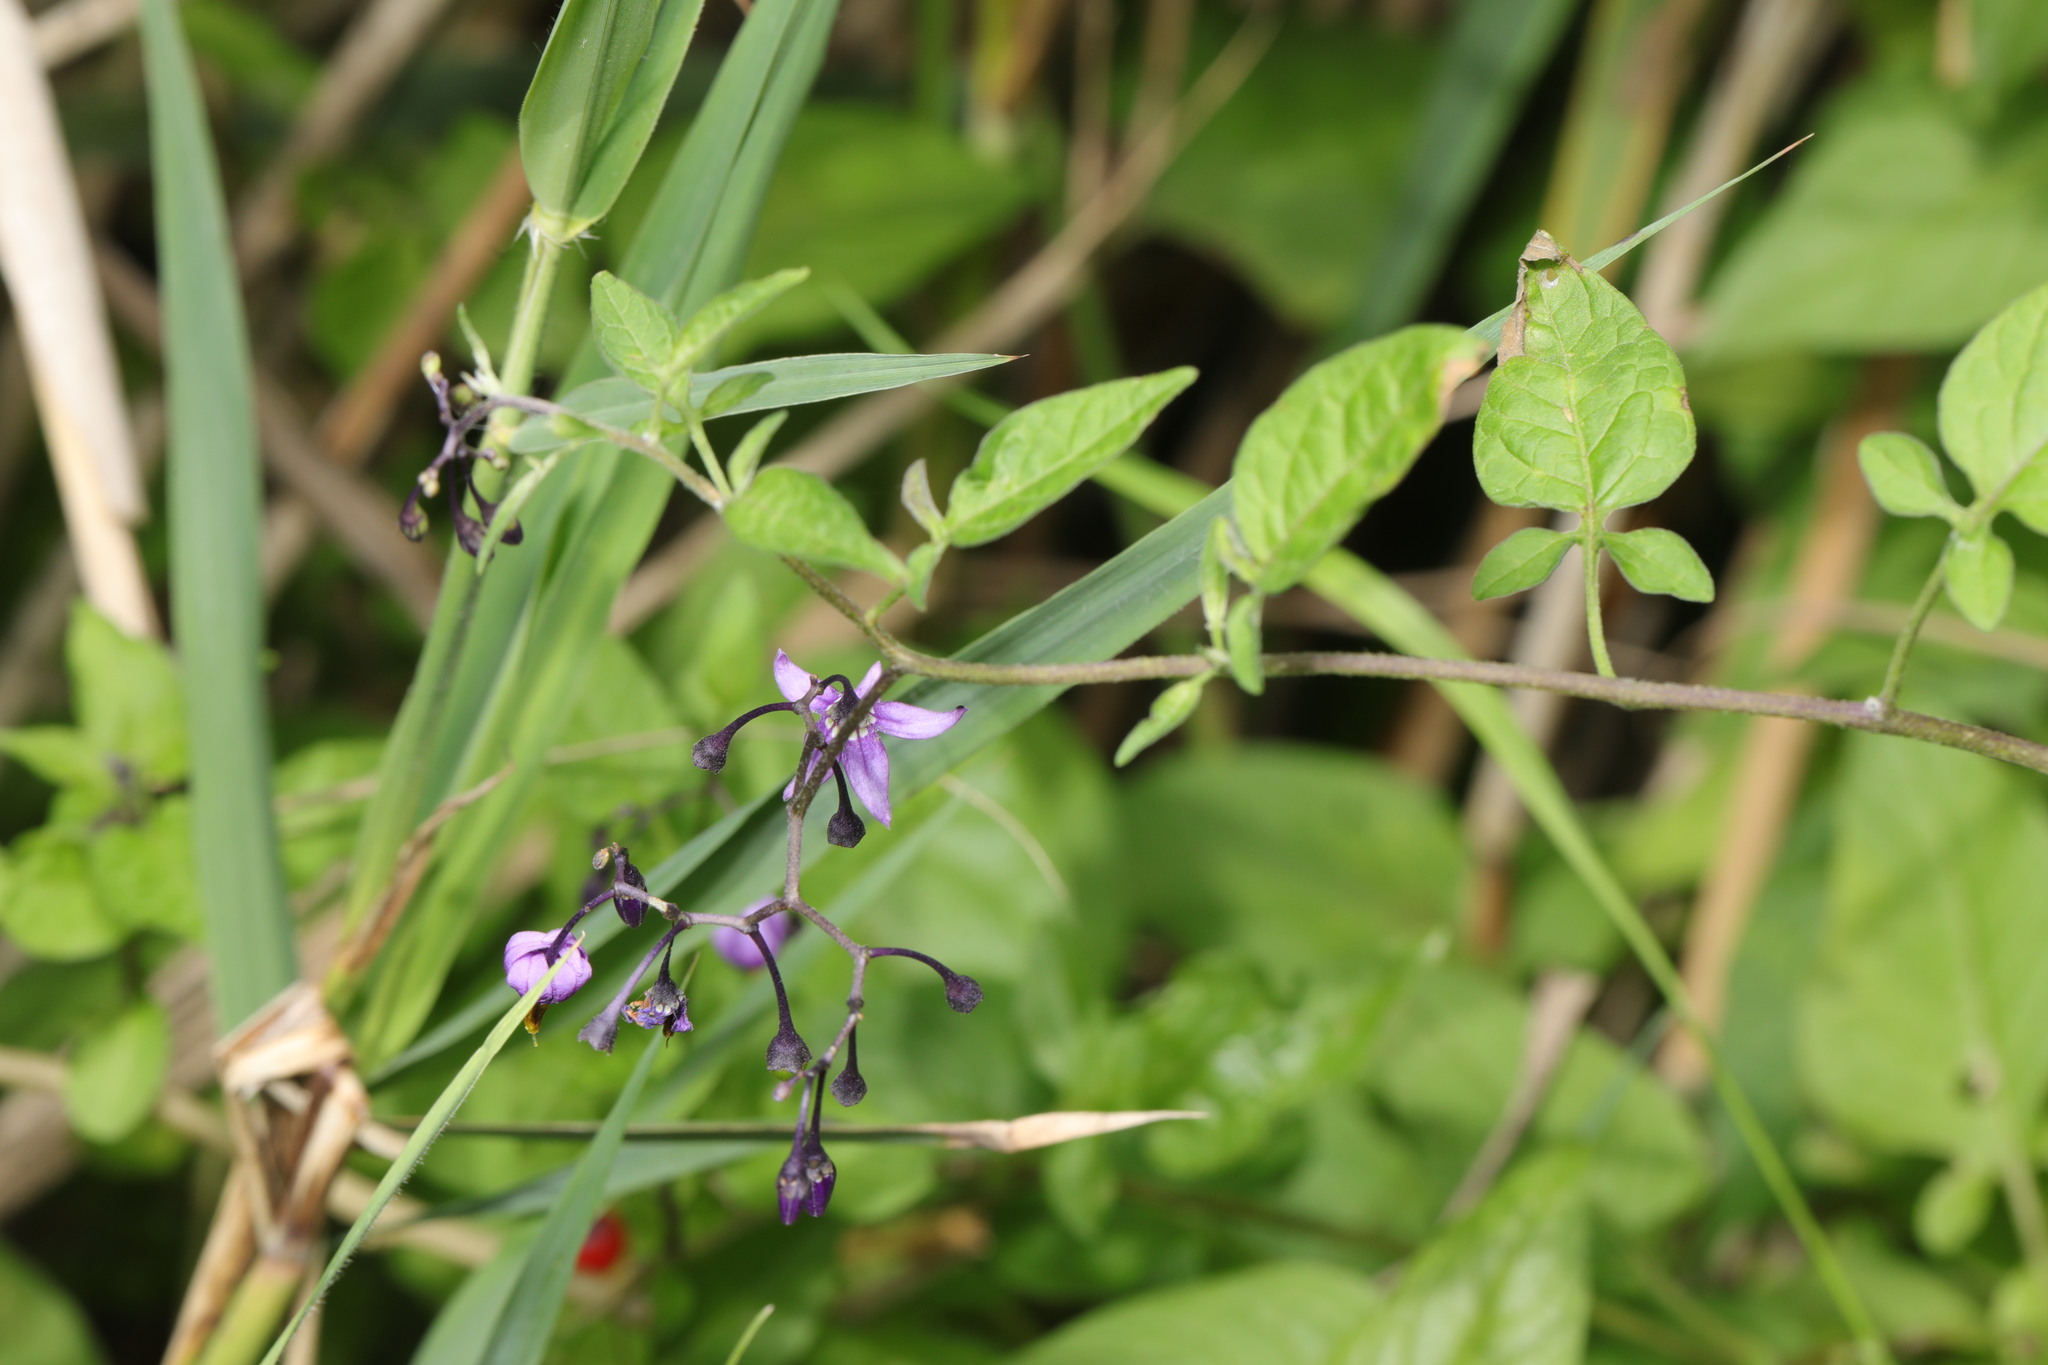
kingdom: Plantae
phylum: Tracheophyta
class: Magnoliopsida
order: Solanales
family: Solanaceae
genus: Solanum
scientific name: Solanum dulcamara
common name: Climbing nightshade
